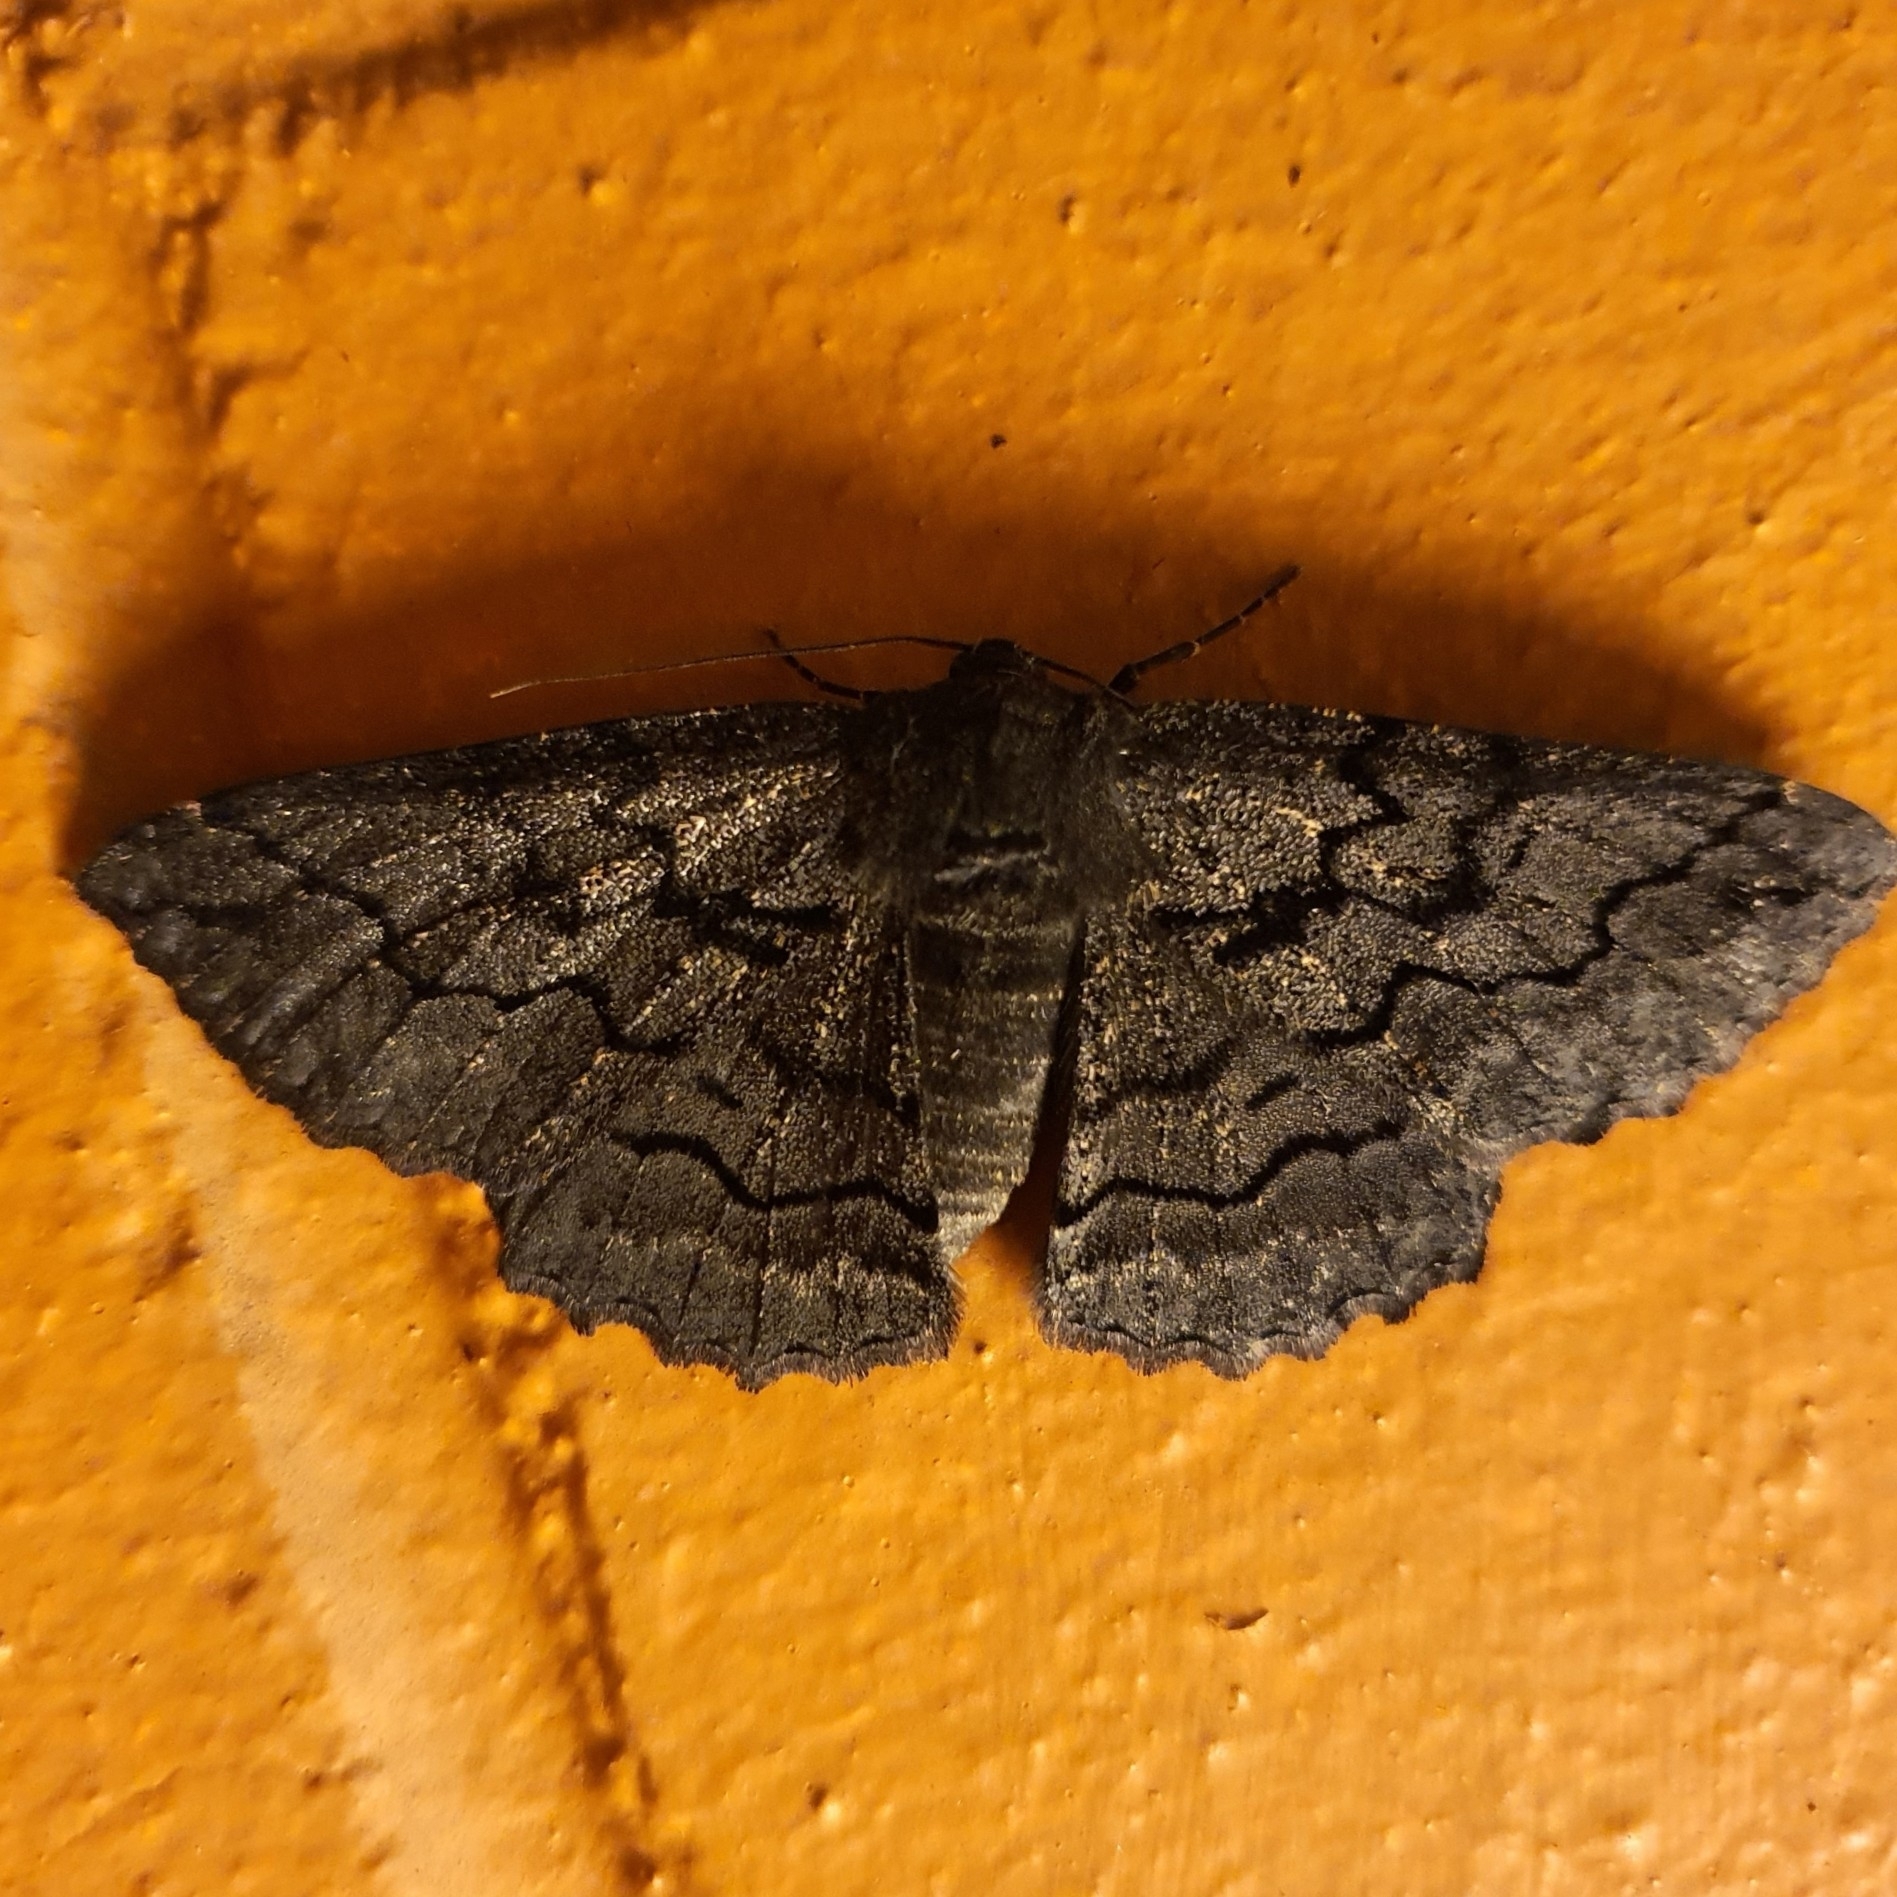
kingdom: Animalia
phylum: Arthropoda
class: Insecta
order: Lepidoptera
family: Geometridae
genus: Melanodes
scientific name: Melanodes anthracitaria
